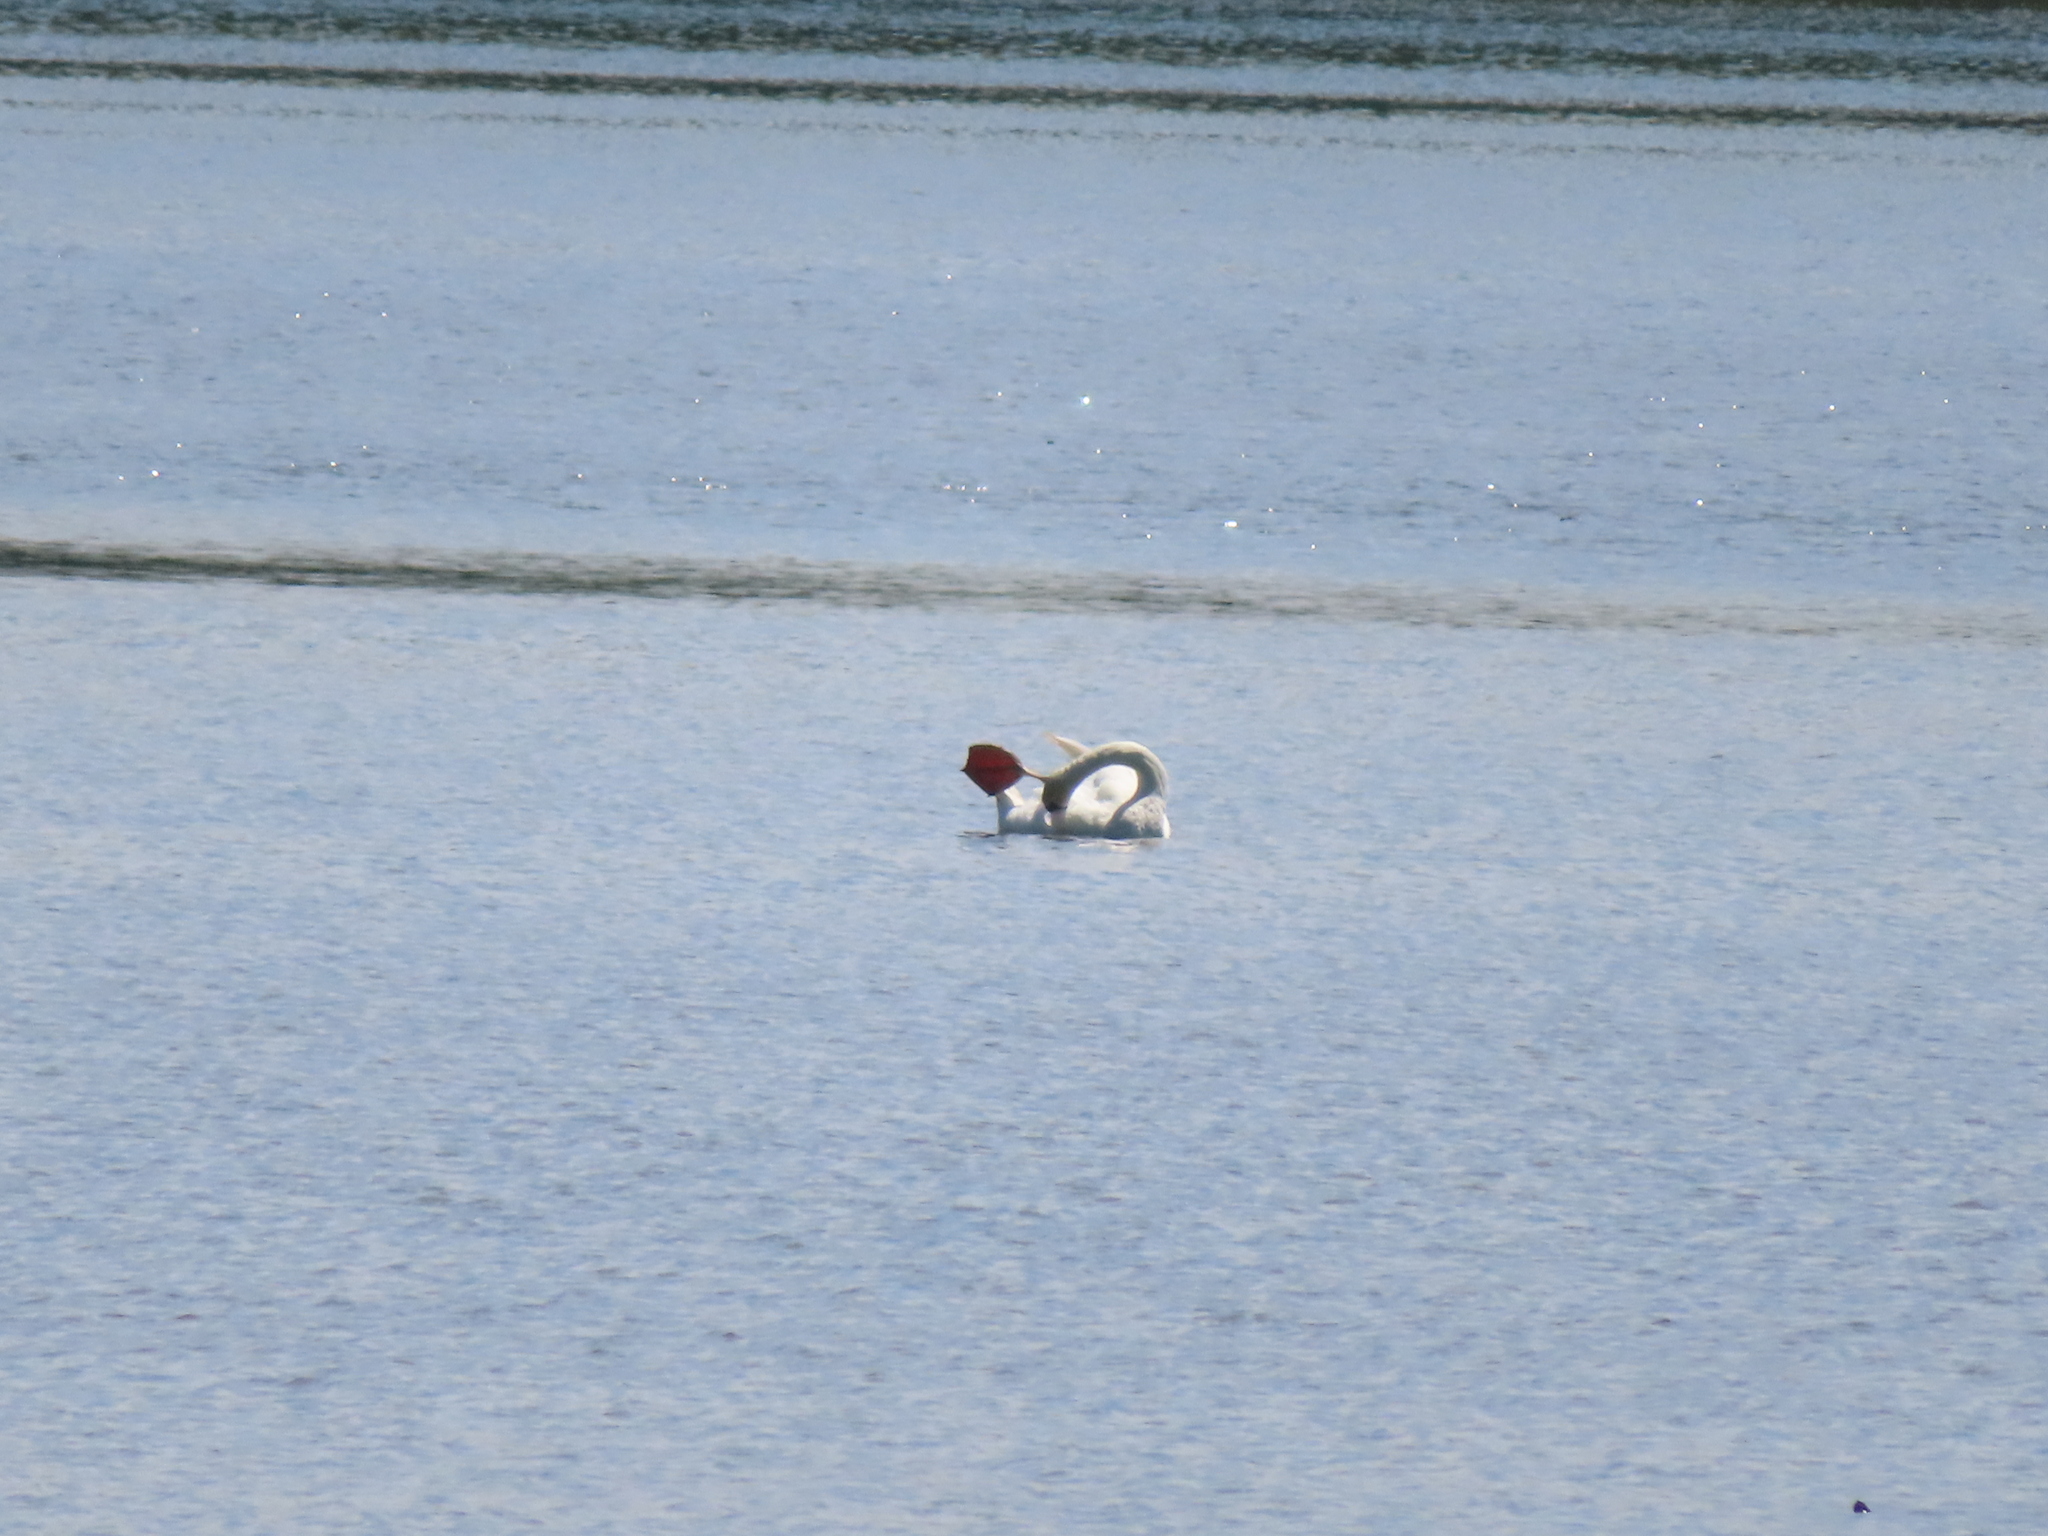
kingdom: Animalia
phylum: Chordata
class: Aves
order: Anseriformes
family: Anatidae
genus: Cygnus
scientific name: Cygnus olor
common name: Mute swan
